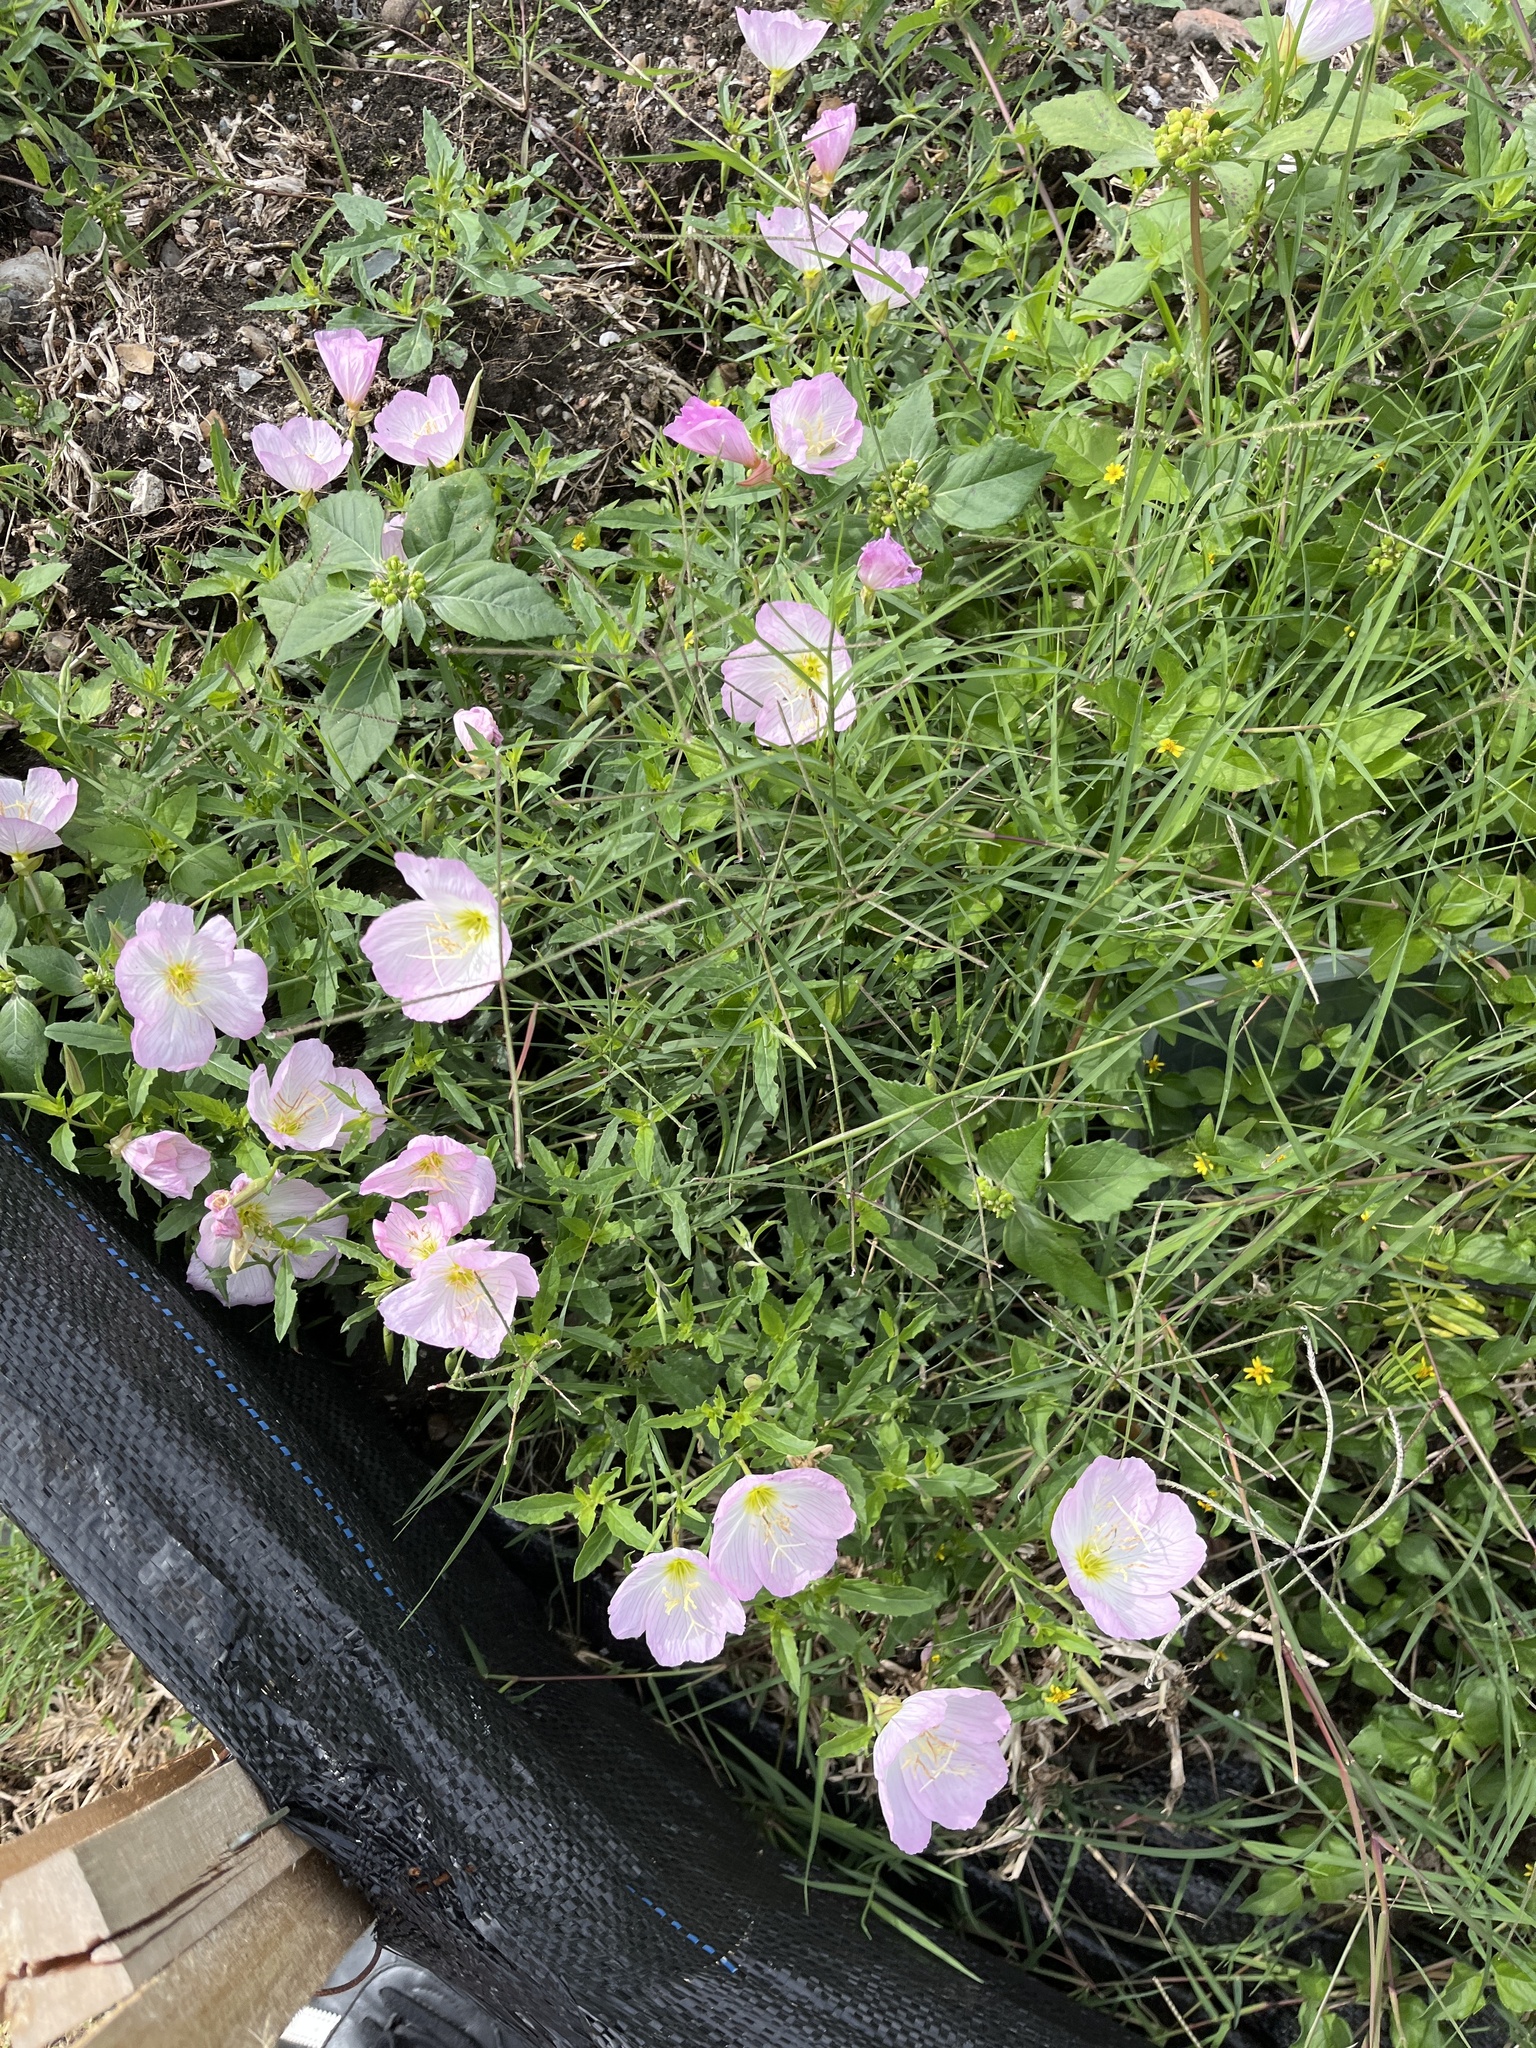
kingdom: Plantae
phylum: Tracheophyta
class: Magnoliopsida
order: Myrtales
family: Onagraceae
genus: Oenothera
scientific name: Oenothera speciosa
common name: White evening-primrose
